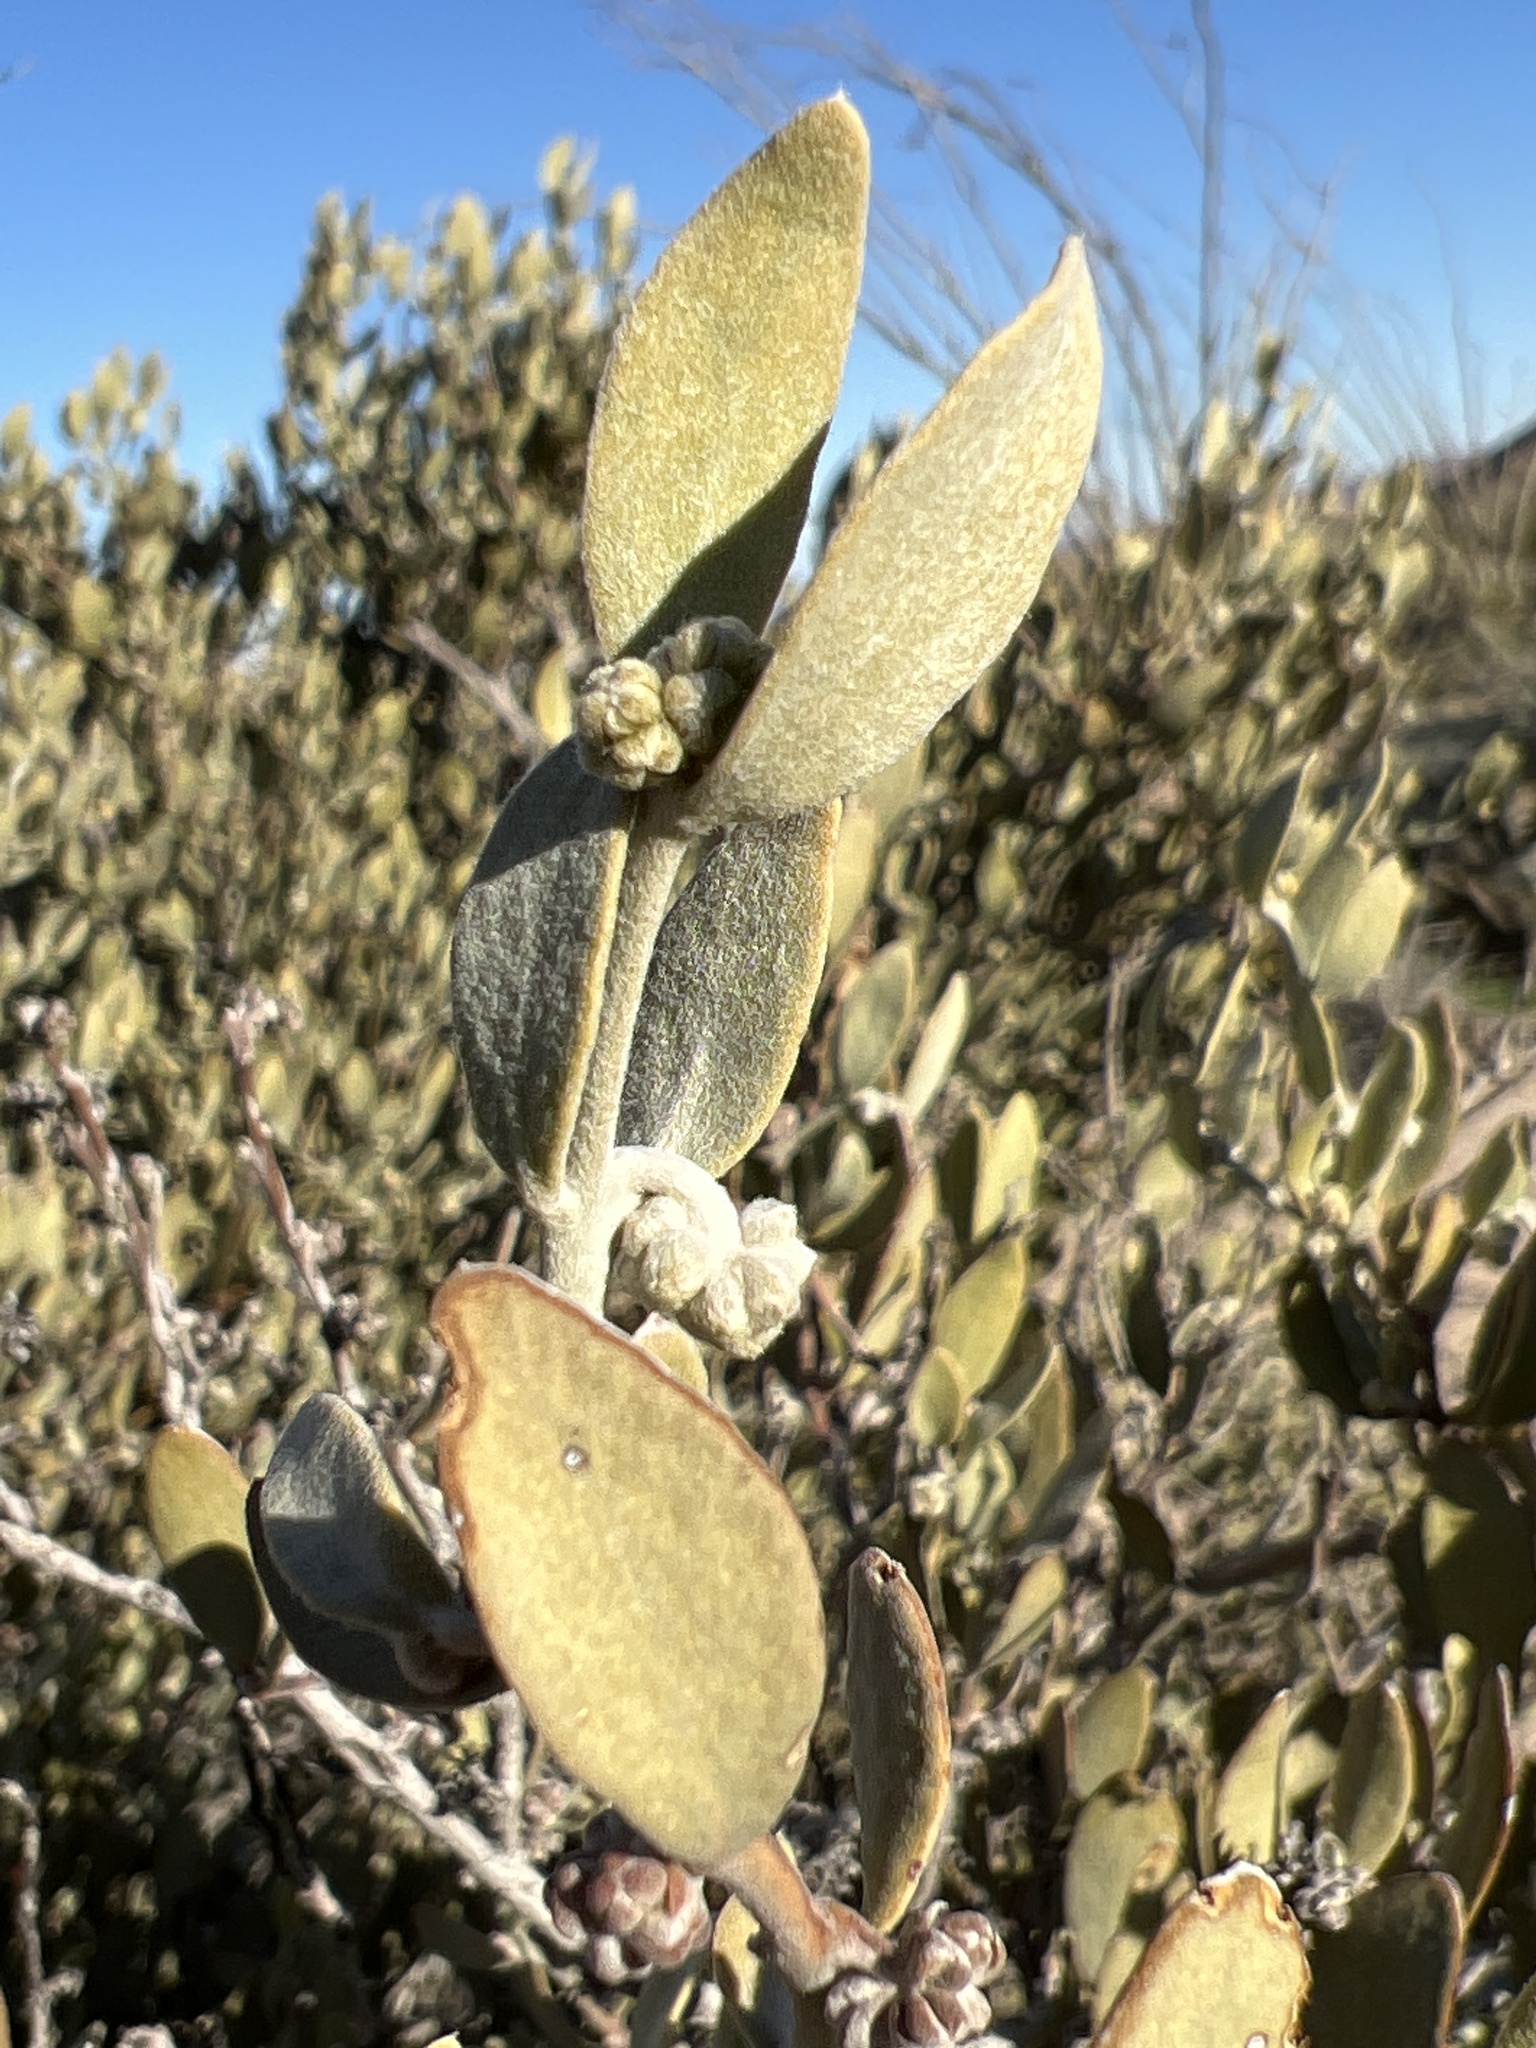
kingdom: Plantae
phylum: Tracheophyta
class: Magnoliopsida
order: Caryophyllales
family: Simmondsiaceae
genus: Simmondsia
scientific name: Simmondsia chinensis
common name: Jojoba
